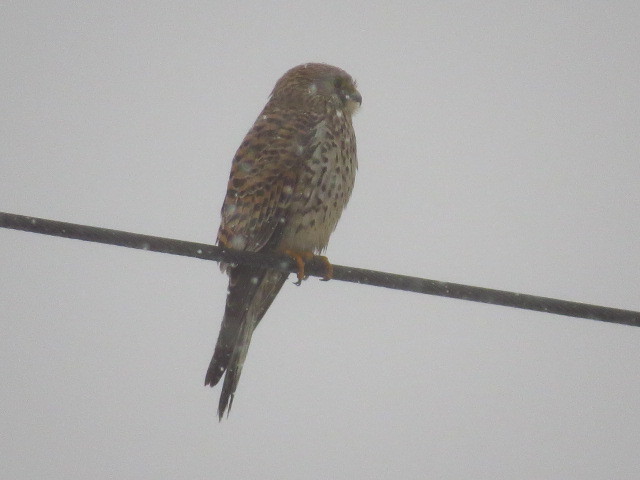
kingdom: Animalia
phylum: Chordata
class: Aves
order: Falconiformes
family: Falconidae
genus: Falco
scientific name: Falco tinnunculus
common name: Common kestrel
